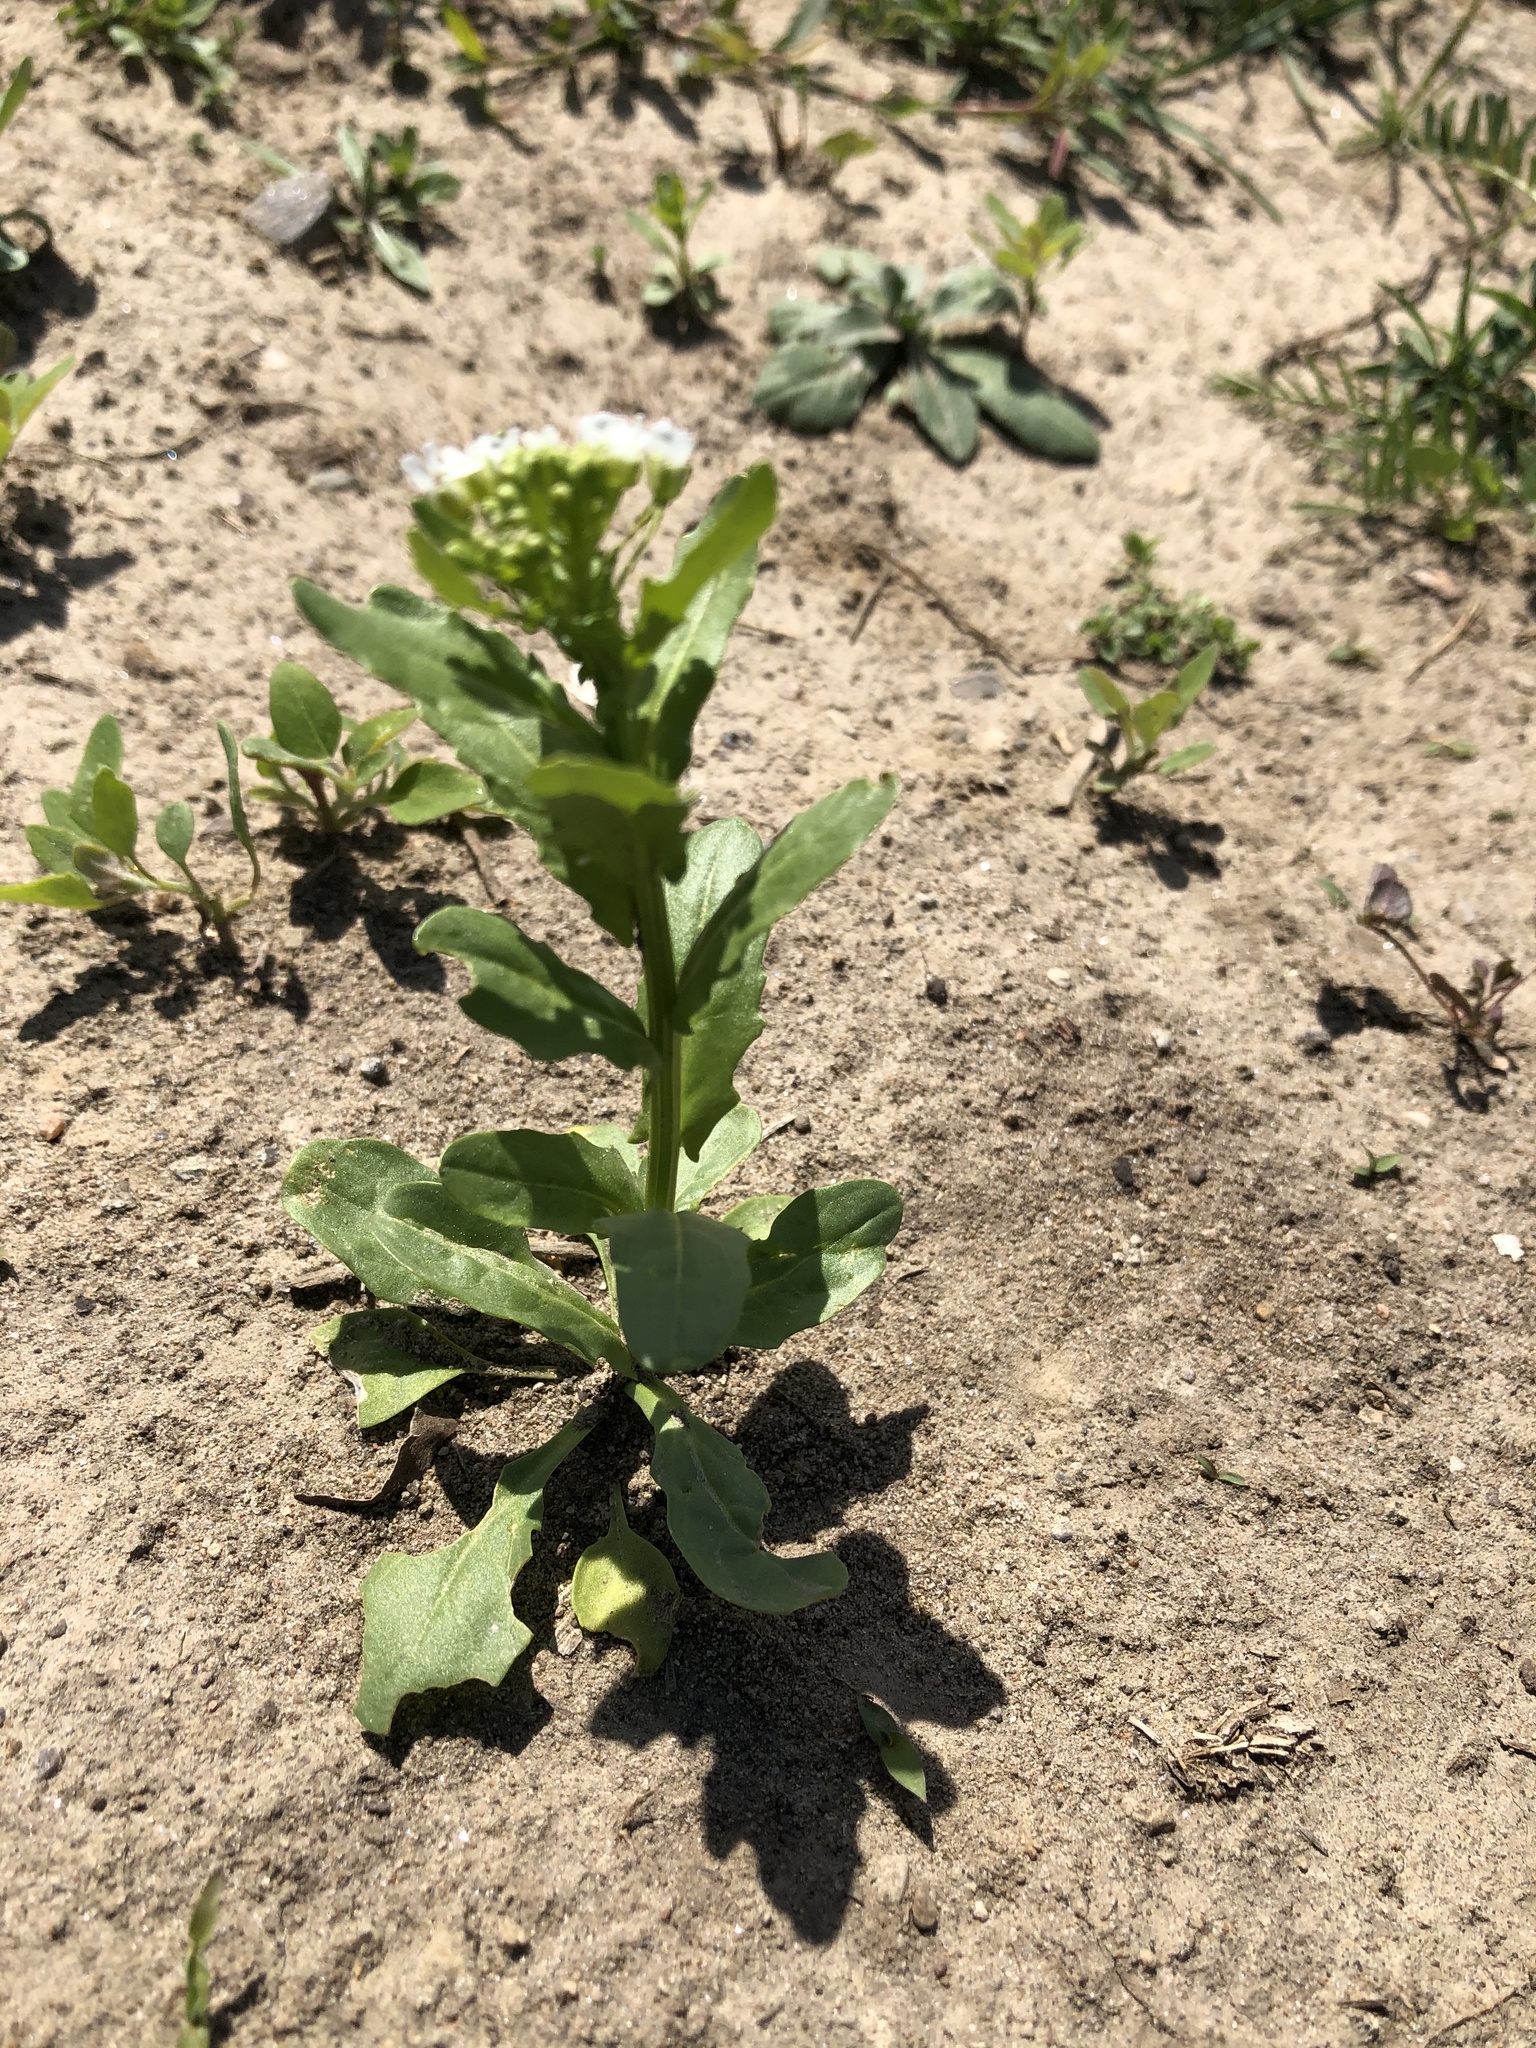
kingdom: Plantae
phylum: Tracheophyta
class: Magnoliopsida
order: Brassicales
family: Brassicaceae
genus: Thlaspi
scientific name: Thlaspi arvense
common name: Field pennycress
